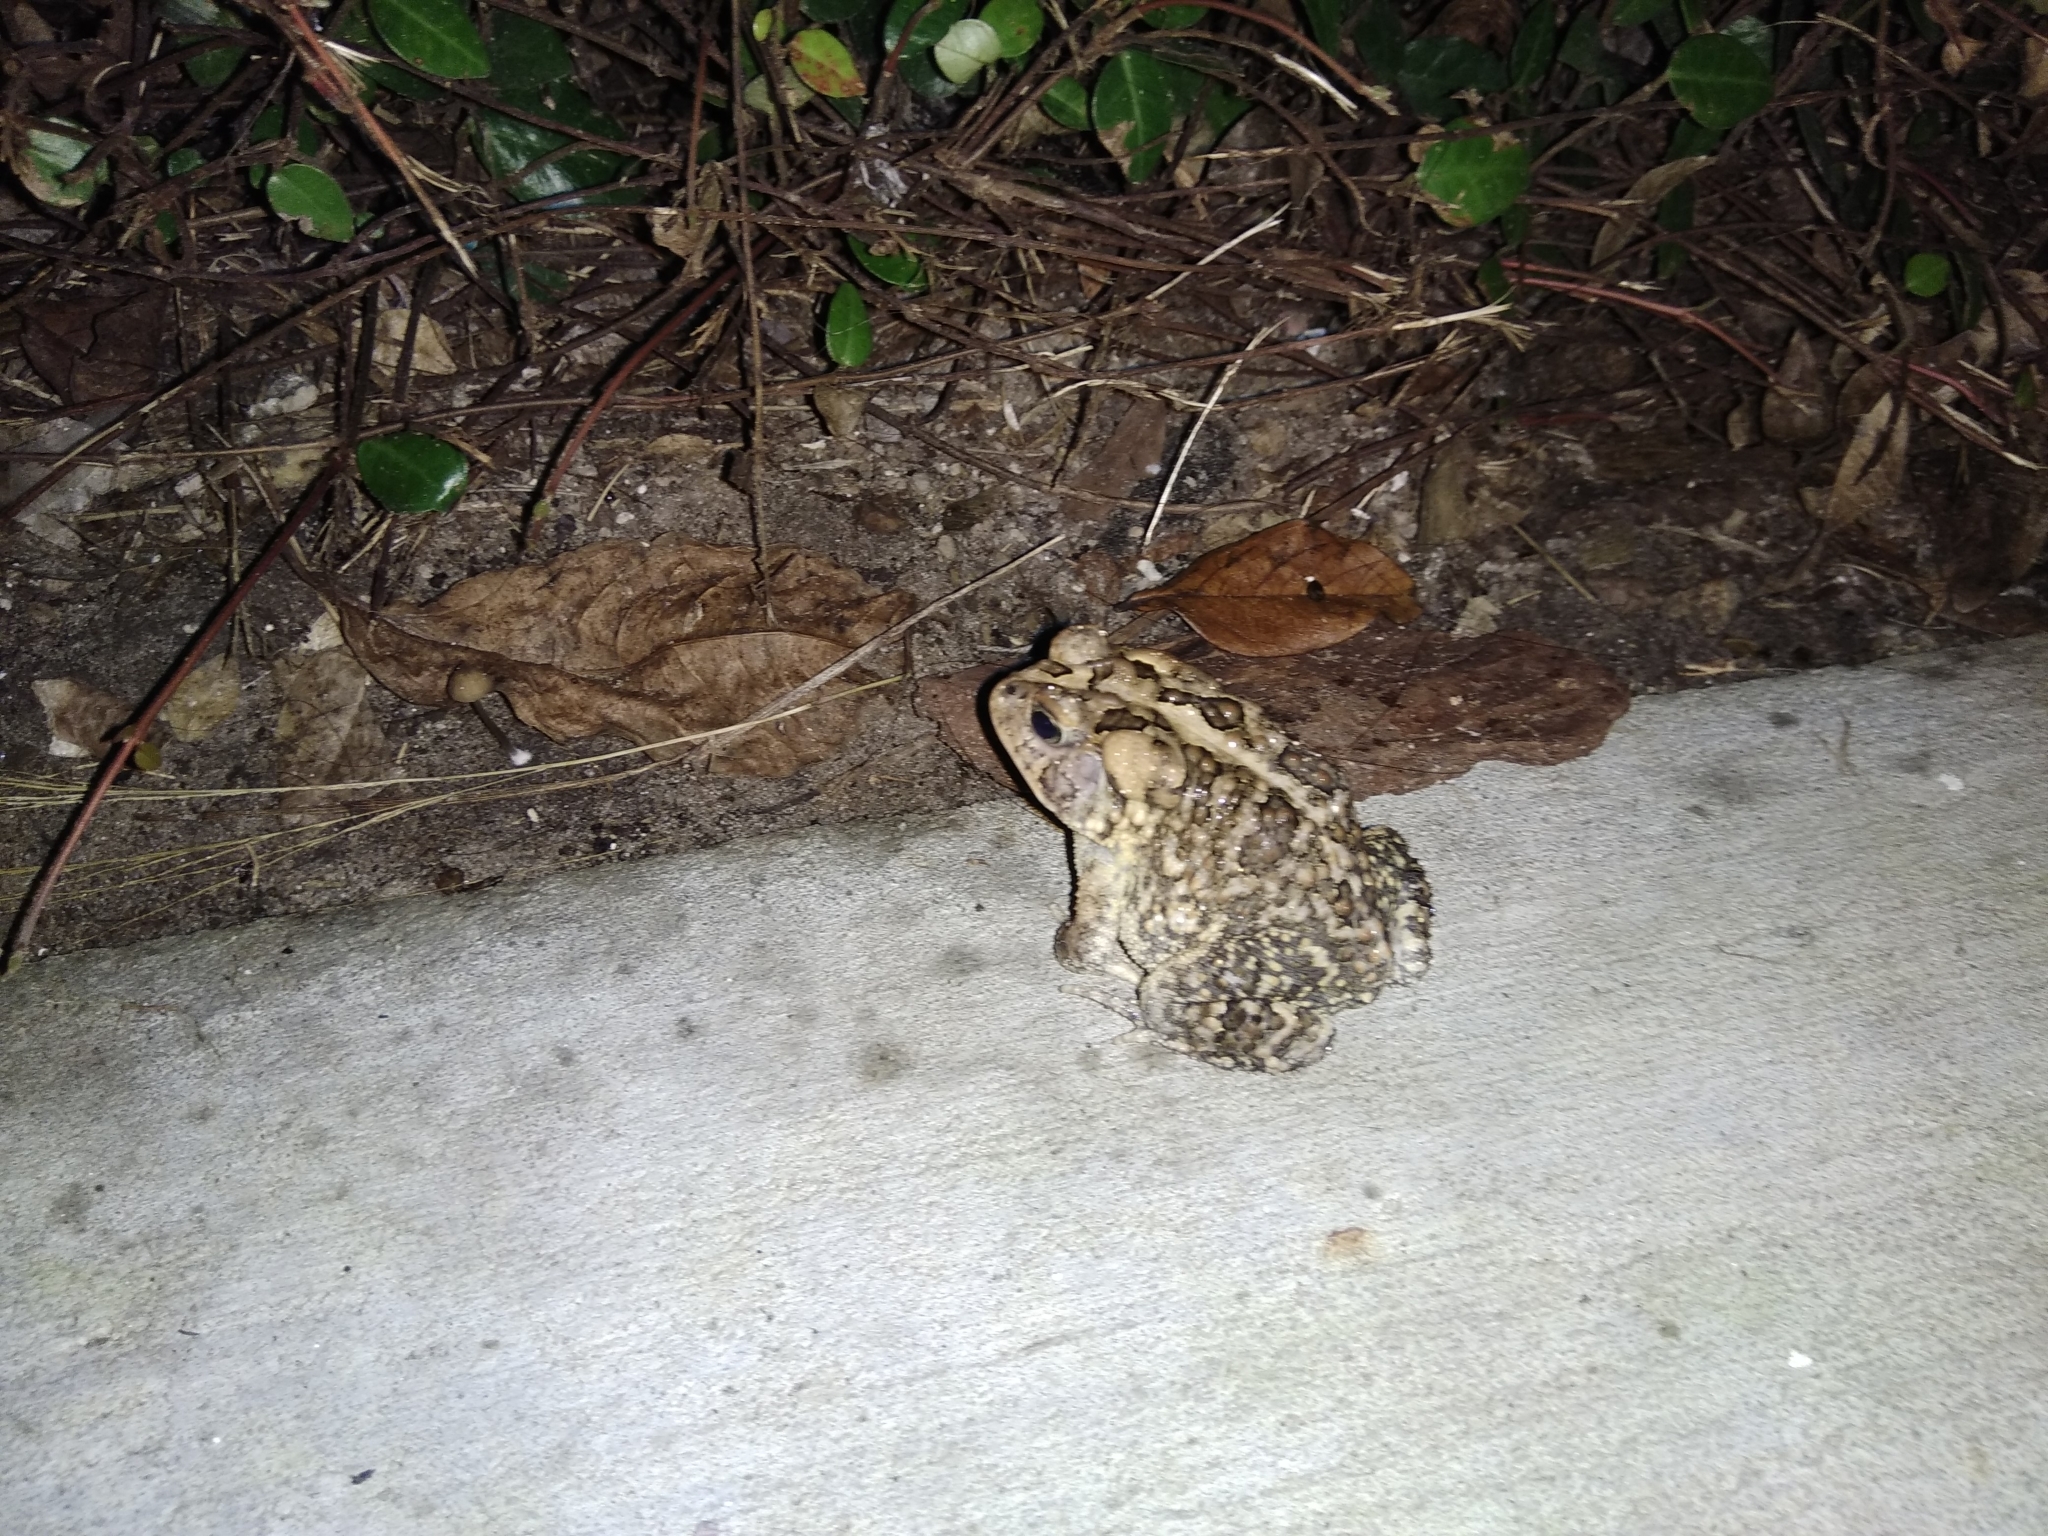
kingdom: Animalia
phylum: Chordata
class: Amphibia
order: Anura
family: Bufonidae
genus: Anaxyrus
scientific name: Anaxyrus terrestris
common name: Southern toad
